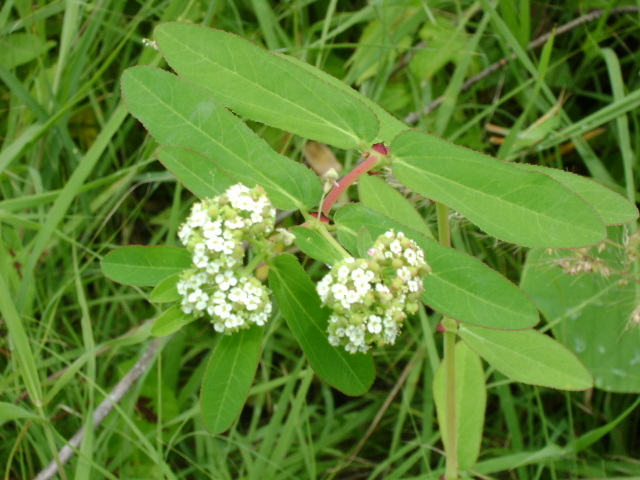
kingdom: Plantae
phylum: Tracheophyta
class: Magnoliopsida
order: Malpighiales
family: Euphorbiaceae
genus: Euphorbia
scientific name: Euphorbia hypericifolia
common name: Graceful sandmat
